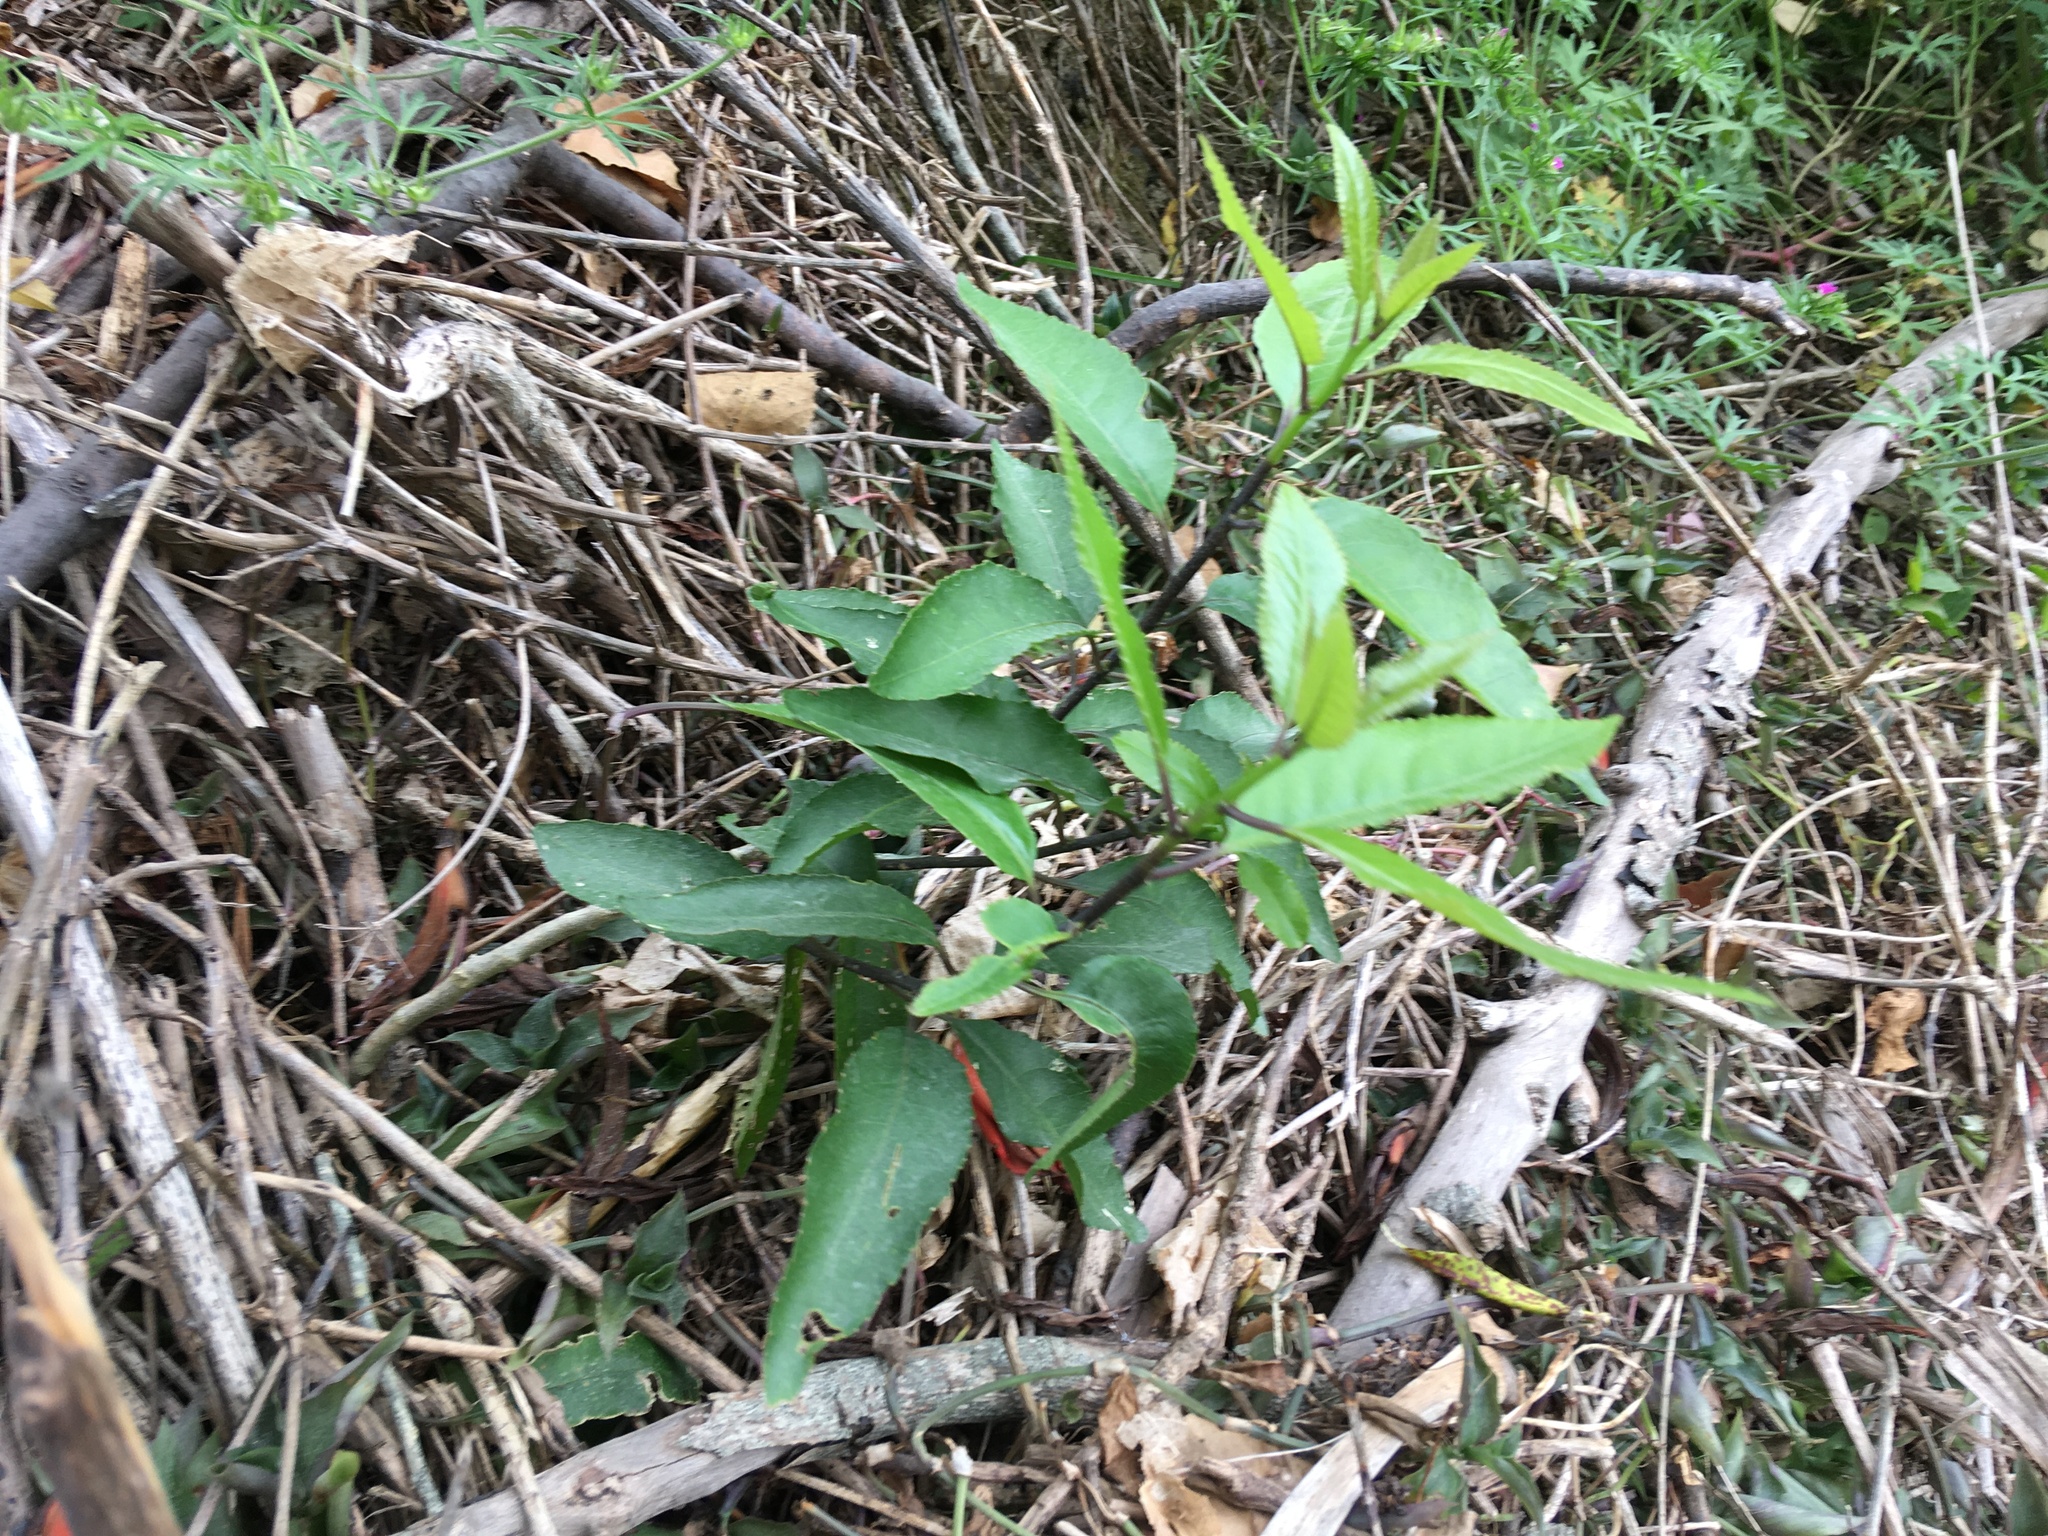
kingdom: Plantae
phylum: Tracheophyta
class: Magnoliopsida
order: Malpighiales
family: Violaceae
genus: Melicytus
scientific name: Melicytus ramiflorus
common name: Mahoe
